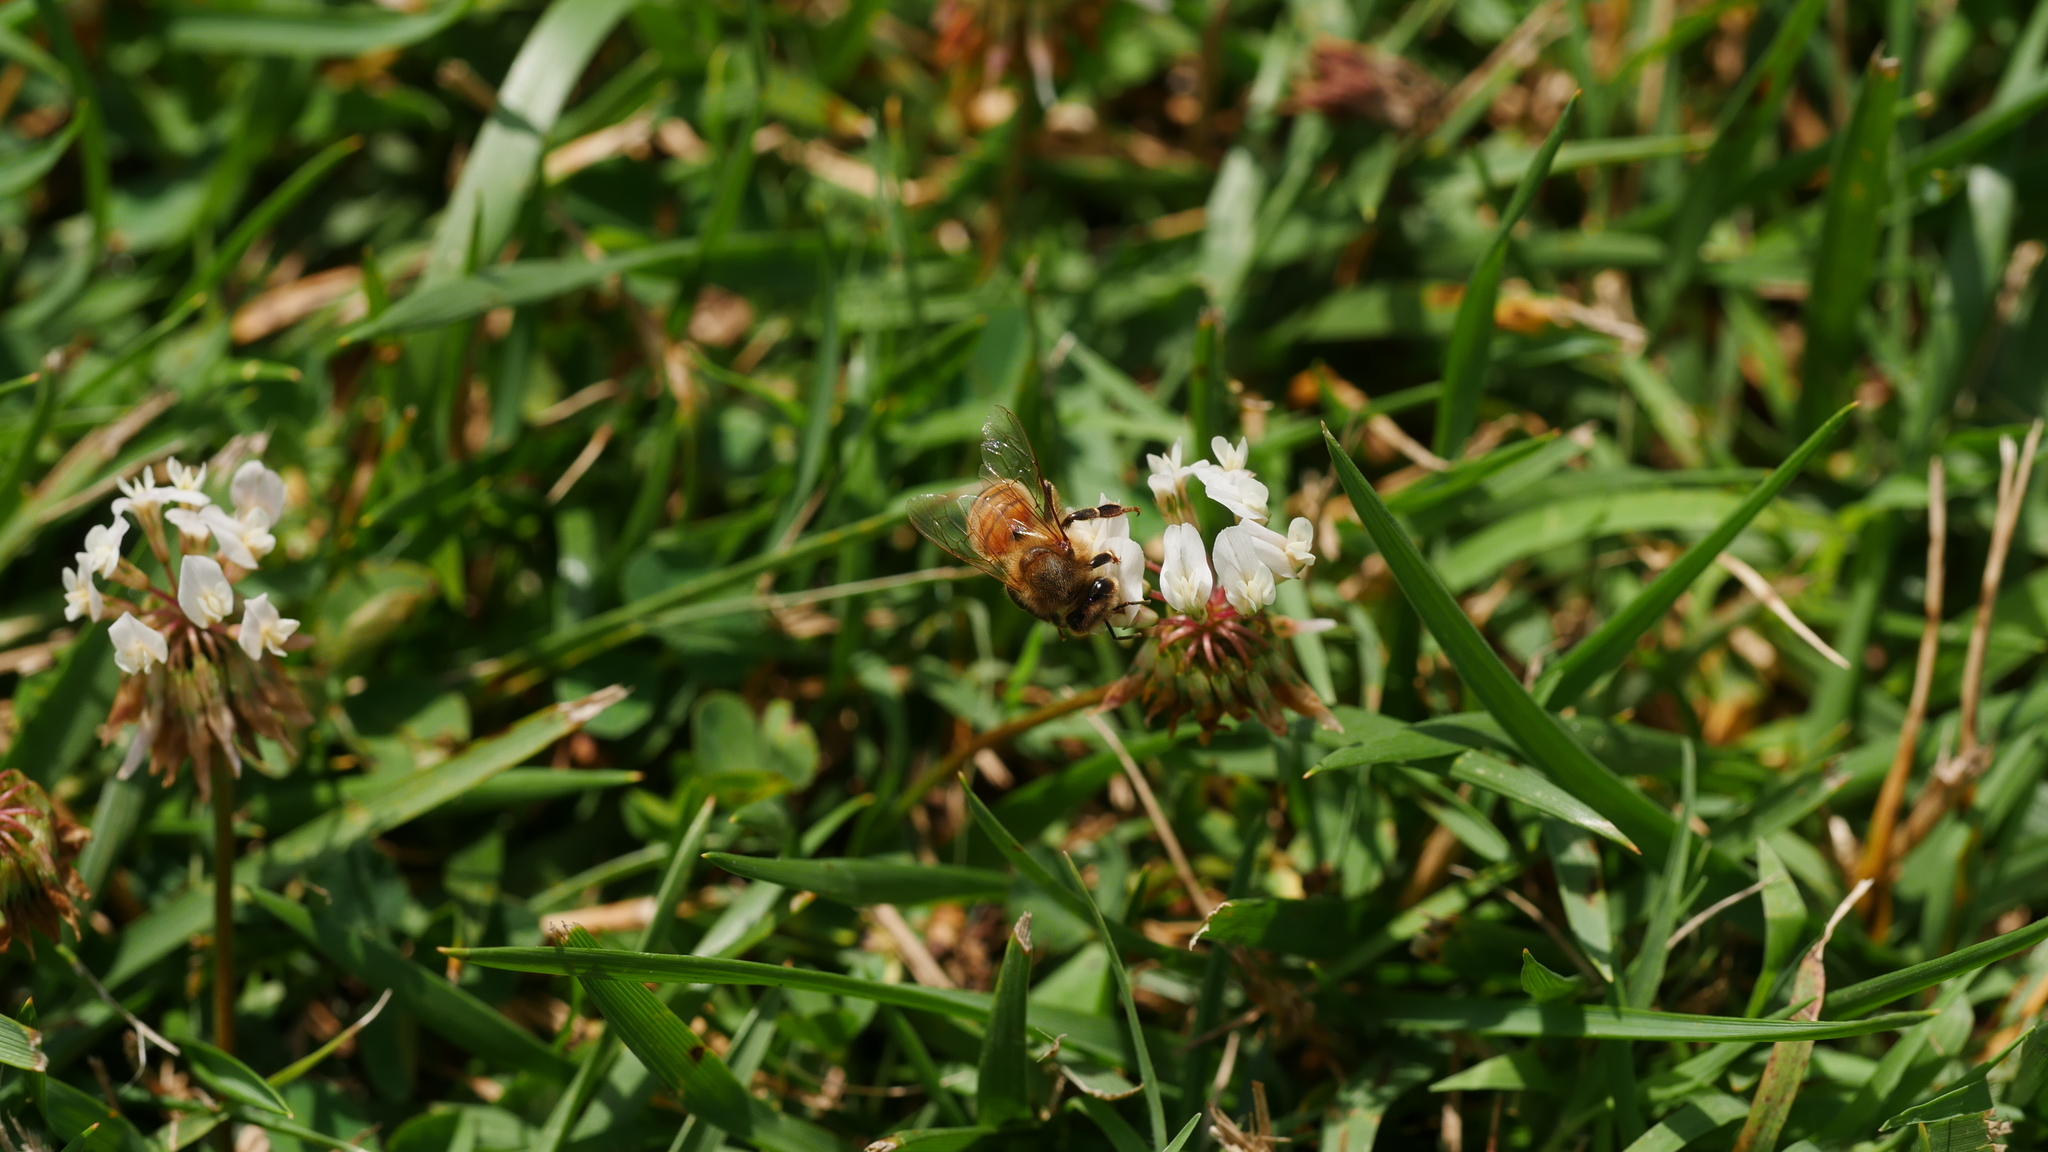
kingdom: Animalia
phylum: Arthropoda
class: Insecta
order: Hymenoptera
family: Apidae
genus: Apis
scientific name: Apis mellifera
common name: Honey bee
